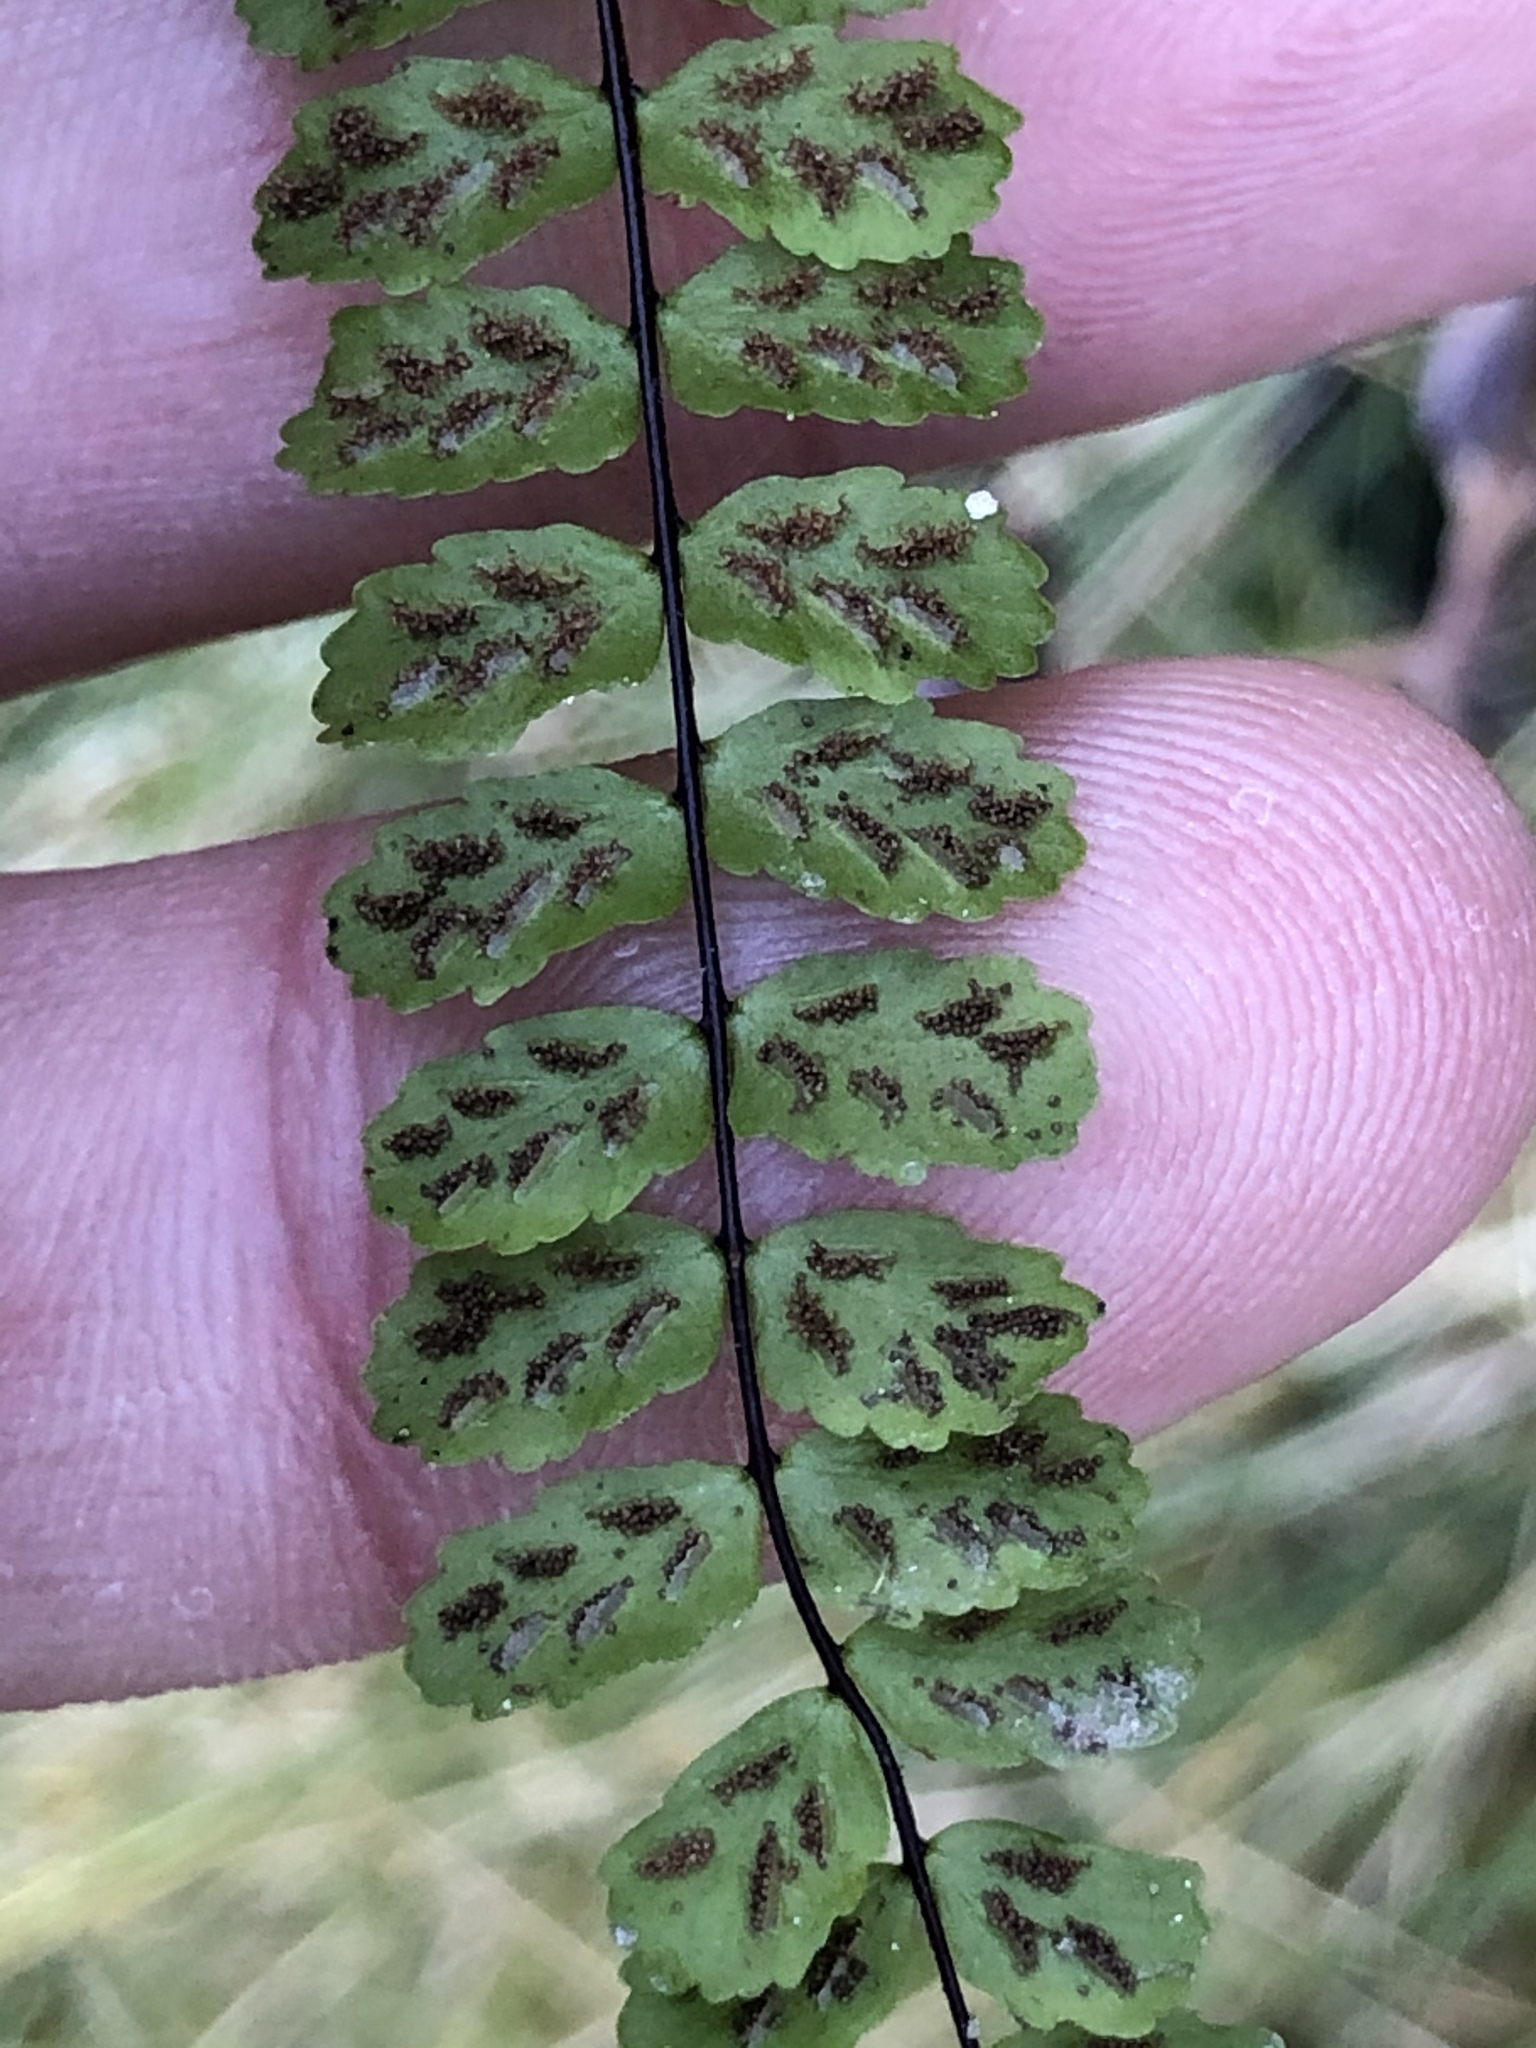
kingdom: Plantae
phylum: Tracheophyta
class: Polypodiopsida
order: Polypodiales
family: Aspleniaceae
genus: Asplenium
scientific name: Asplenium trichomanes
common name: Maidenhair spleenwort
